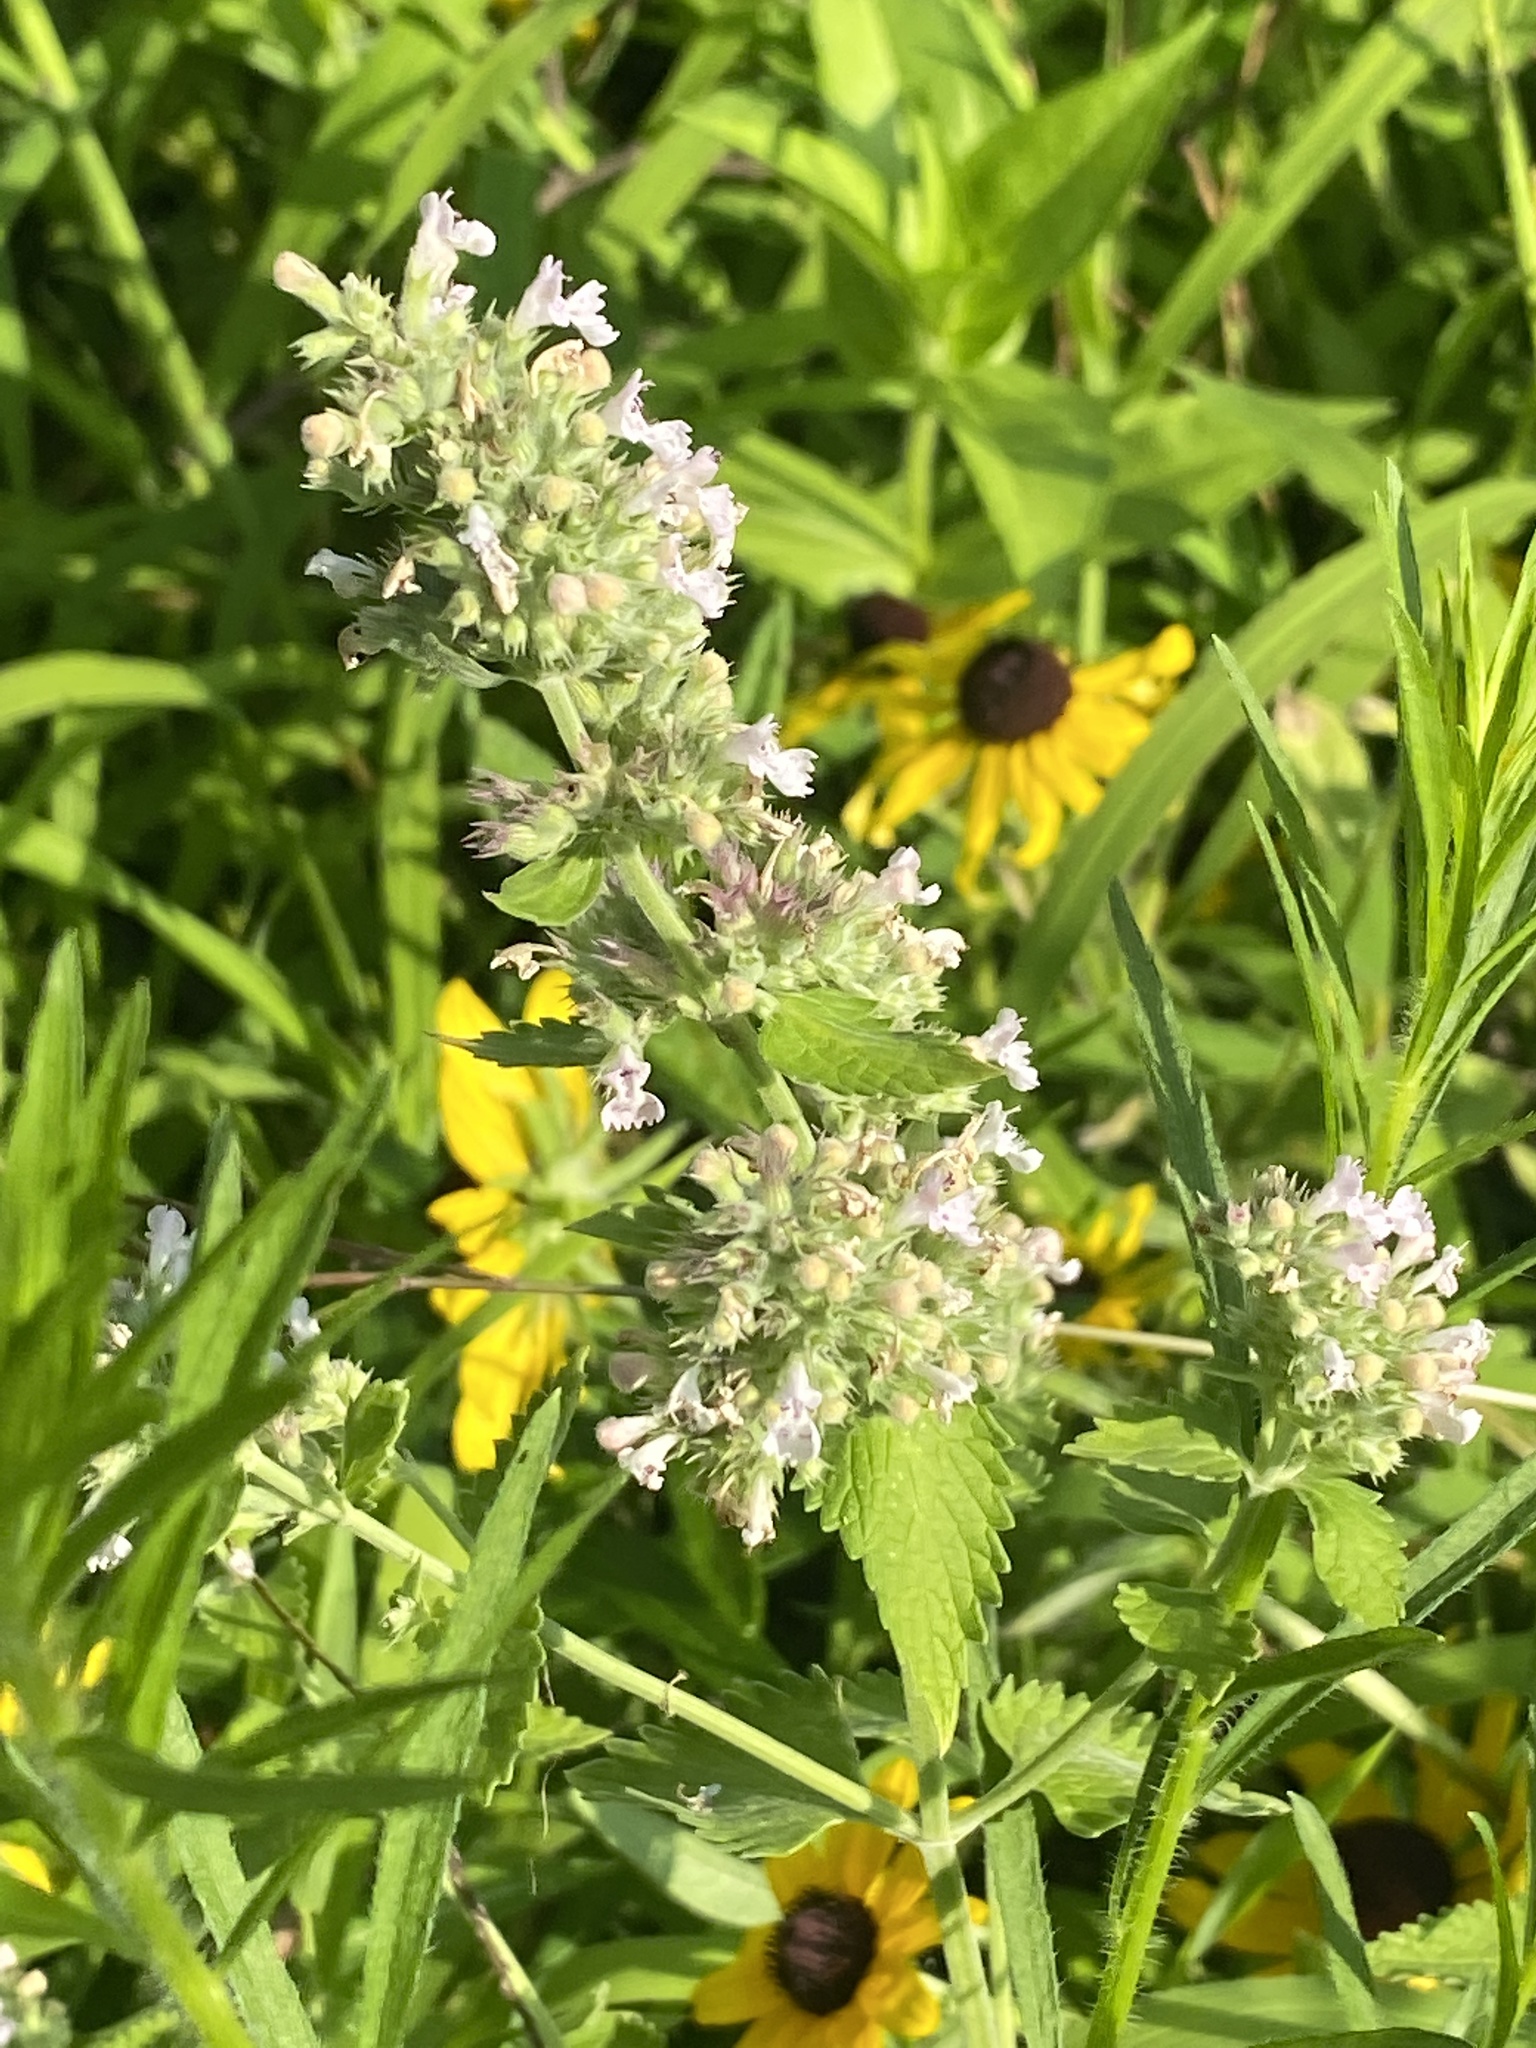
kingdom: Plantae
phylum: Tracheophyta
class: Magnoliopsida
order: Lamiales
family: Lamiaceae
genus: Nepeta
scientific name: Nepeta cataria
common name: Catnip
